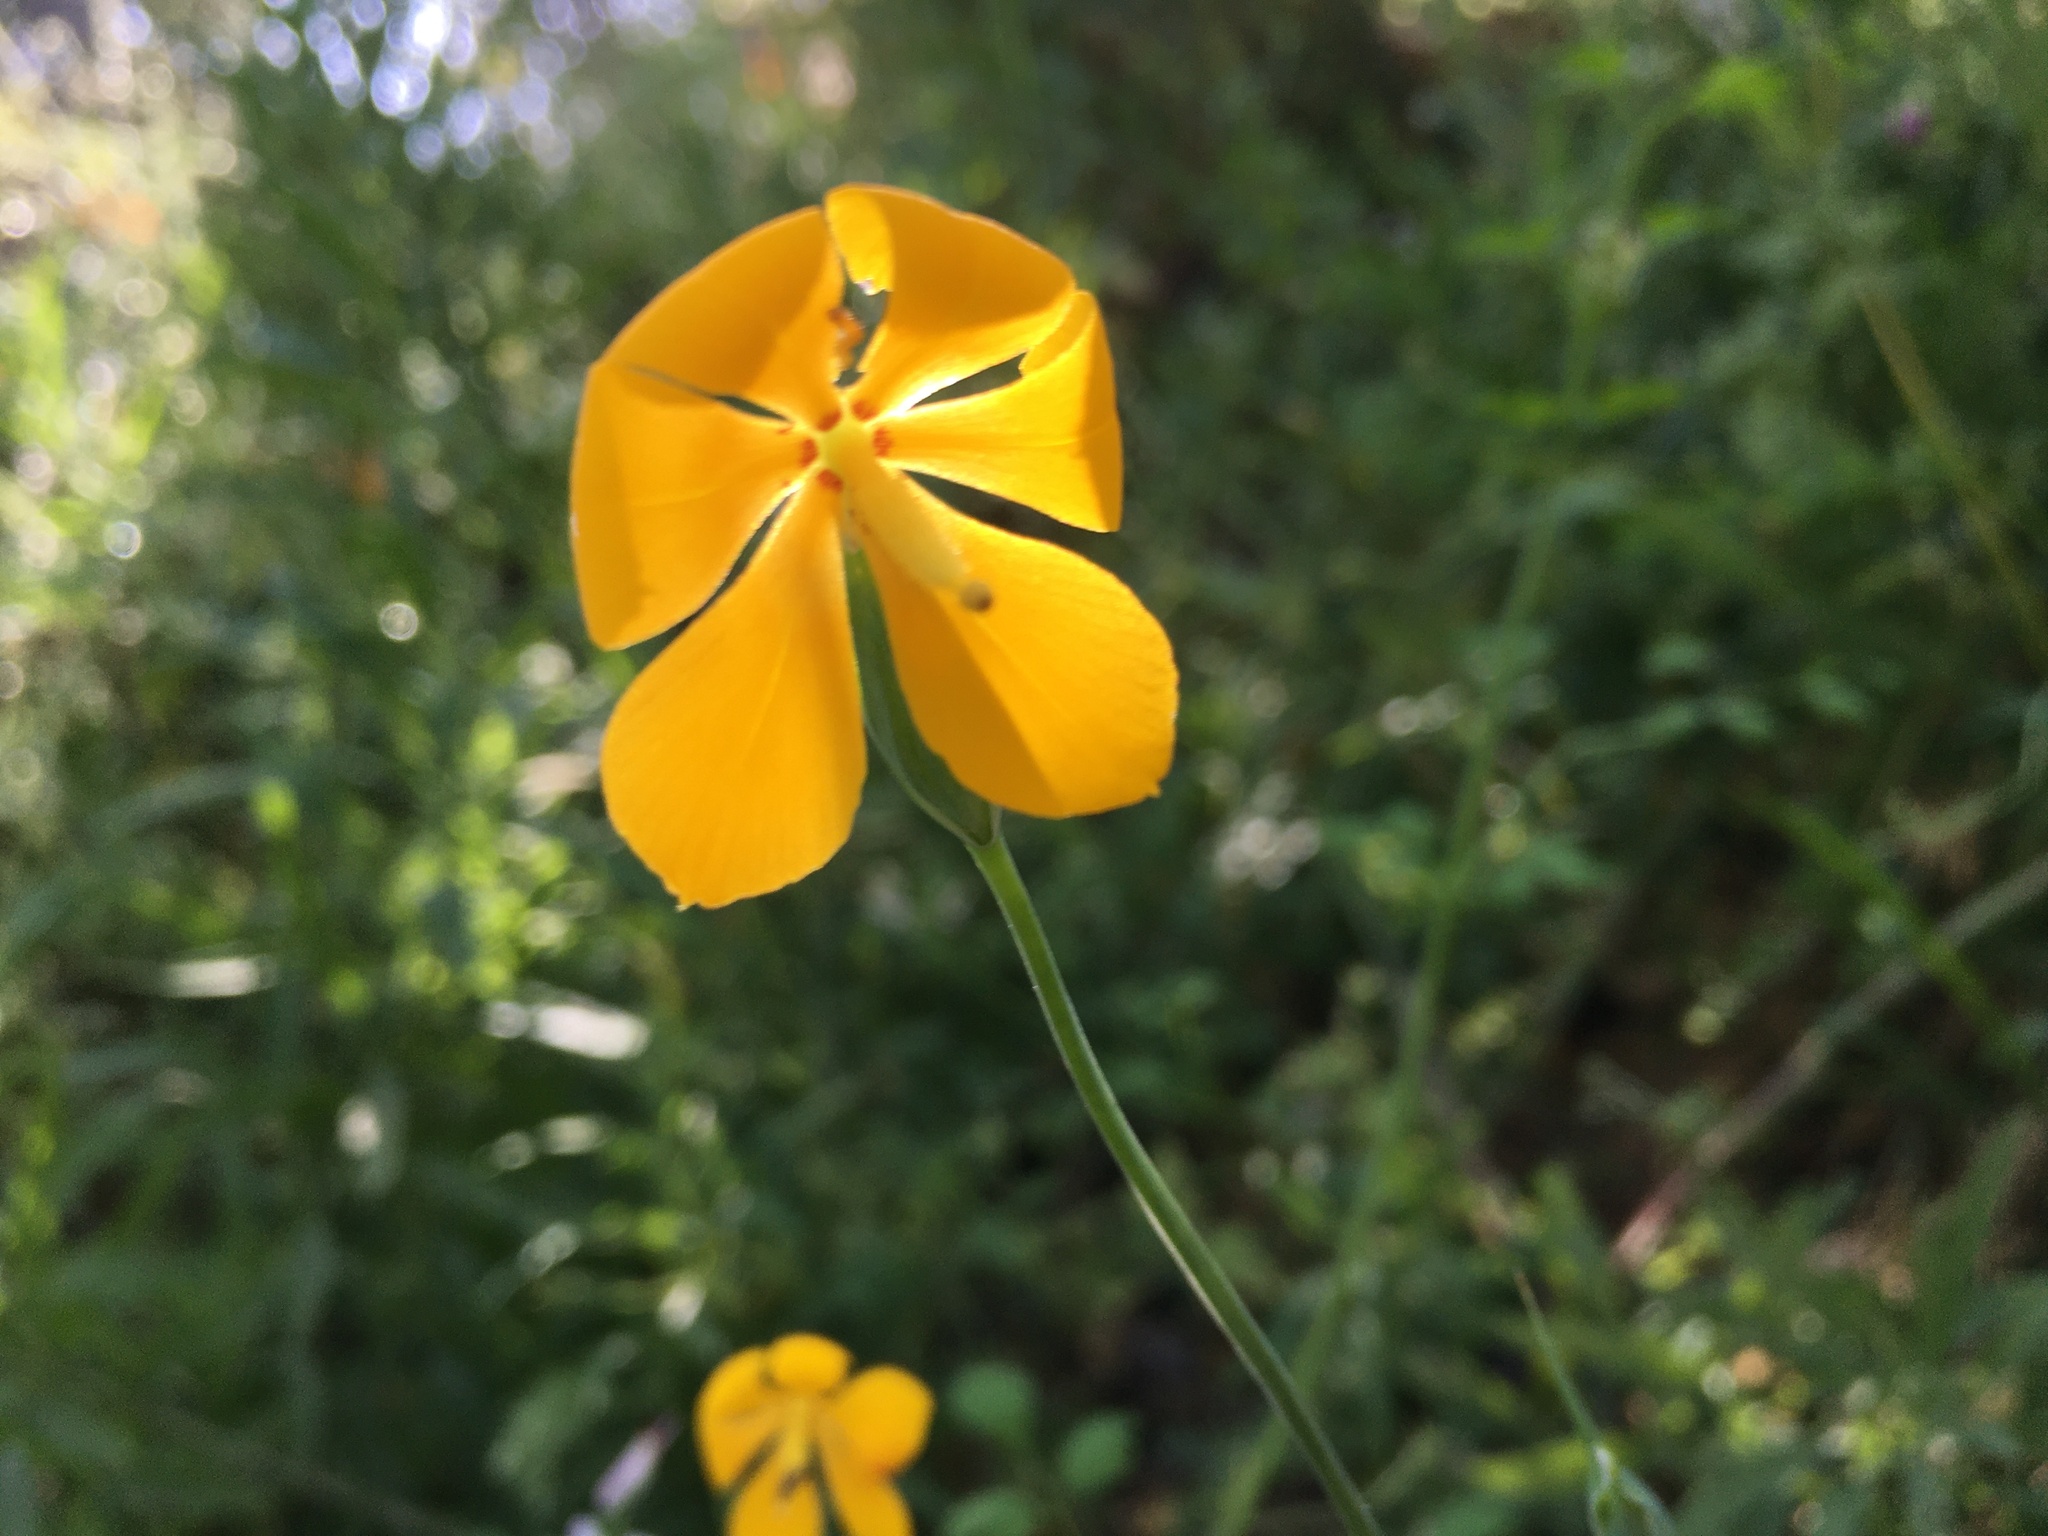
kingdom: Plantae
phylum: Tracheophyta
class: Liliopsida
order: Asparagales
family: Iridaceae
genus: Solenomelus
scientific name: Solenomelus pedunculatus
